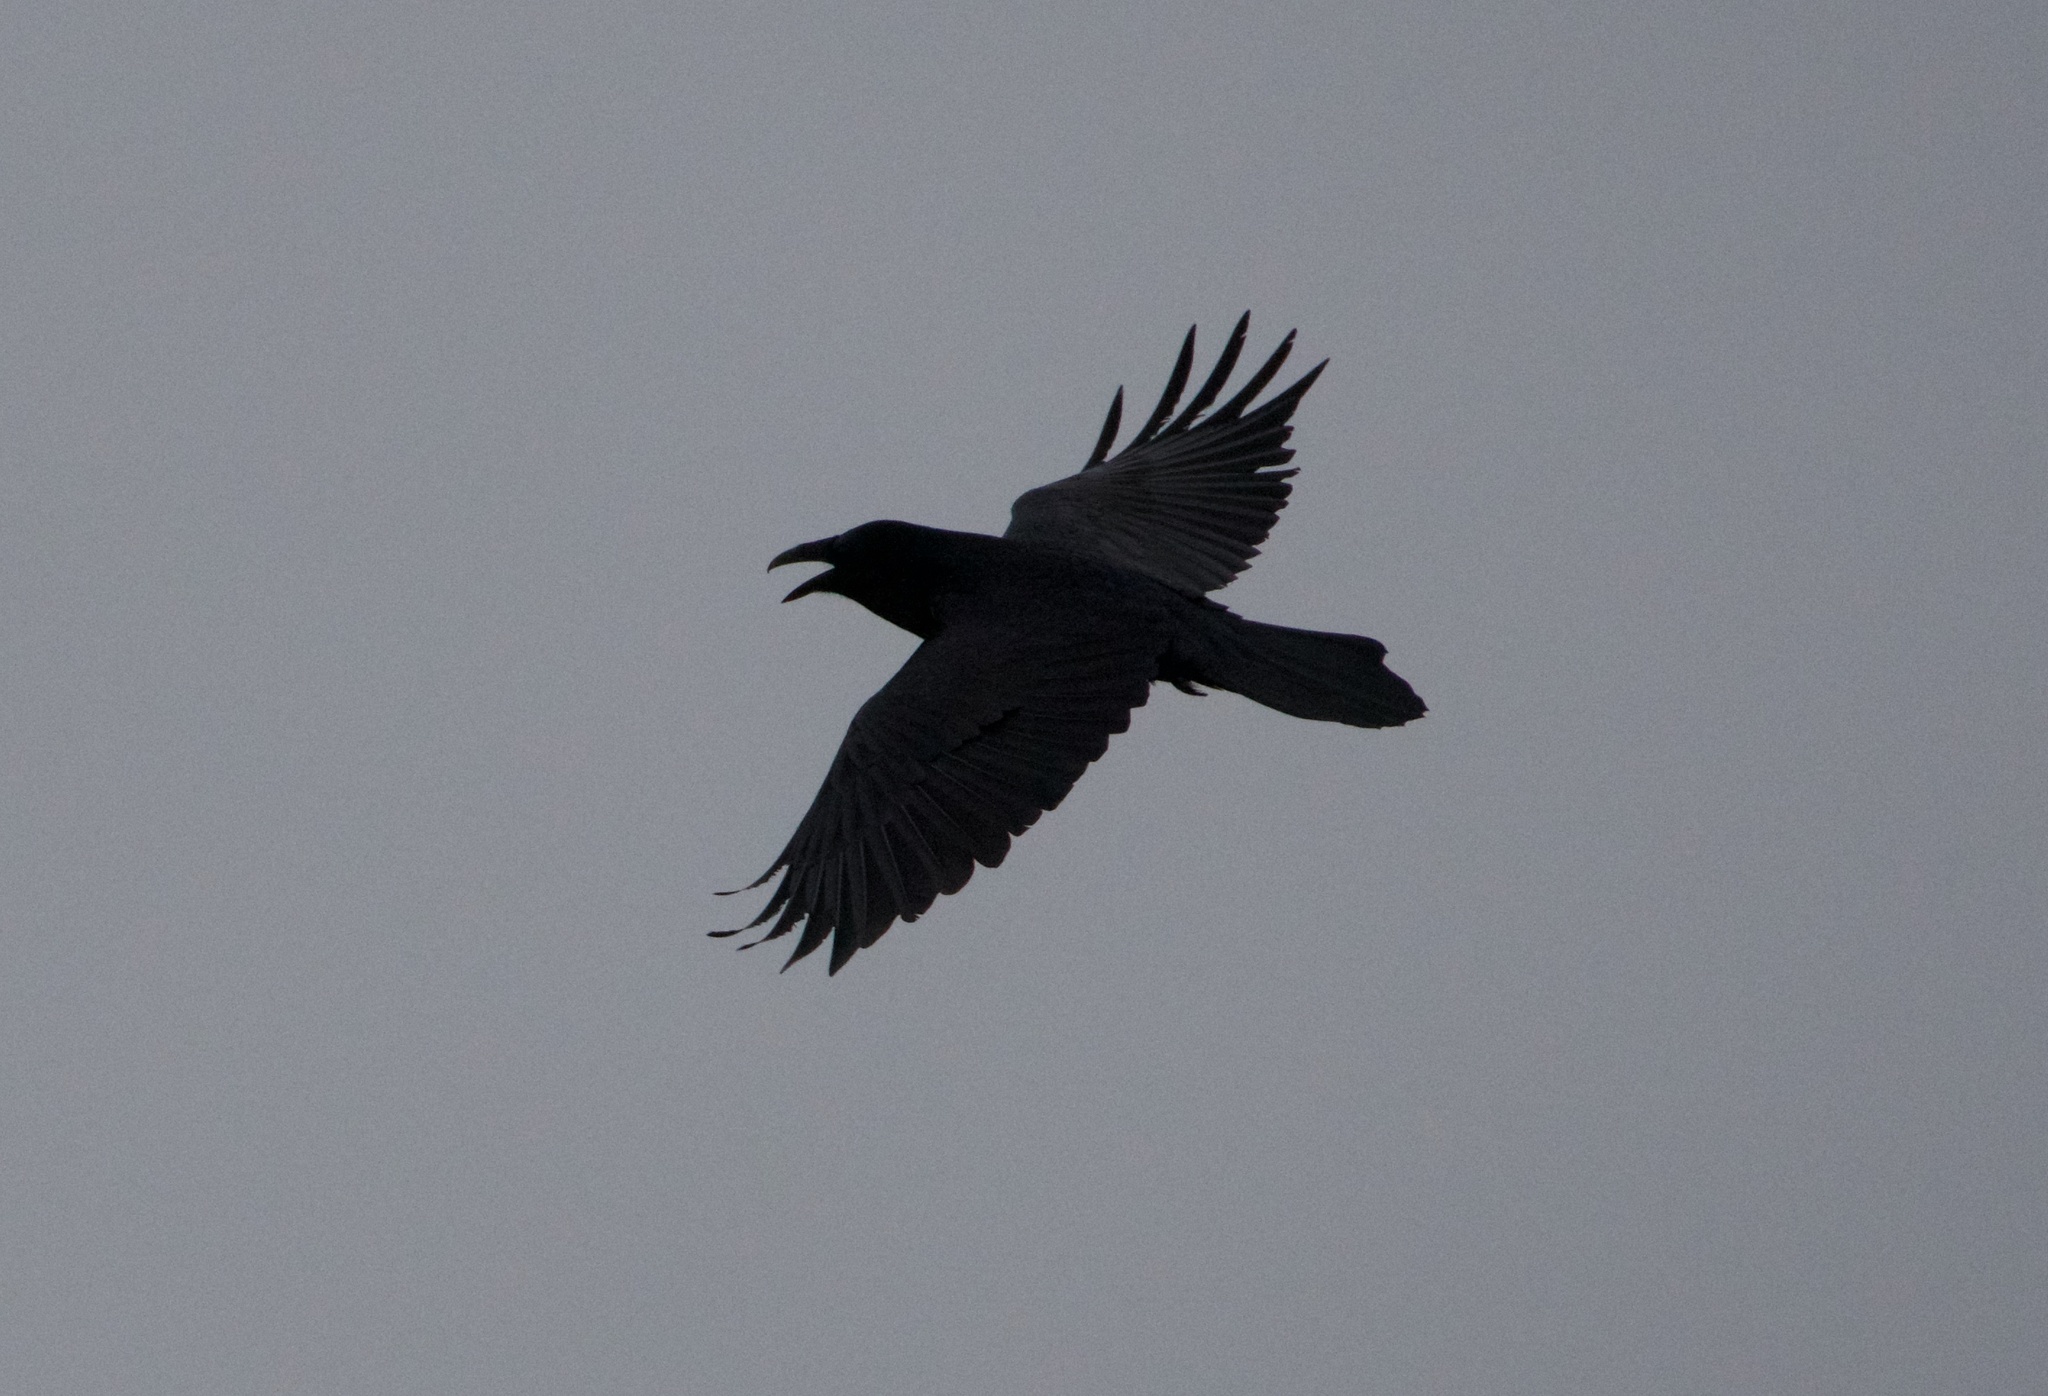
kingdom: Animalia
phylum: Chordata
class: Aves
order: Passeriformes
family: Corvidae
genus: Corvus
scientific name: Corvus corax
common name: Common raven
